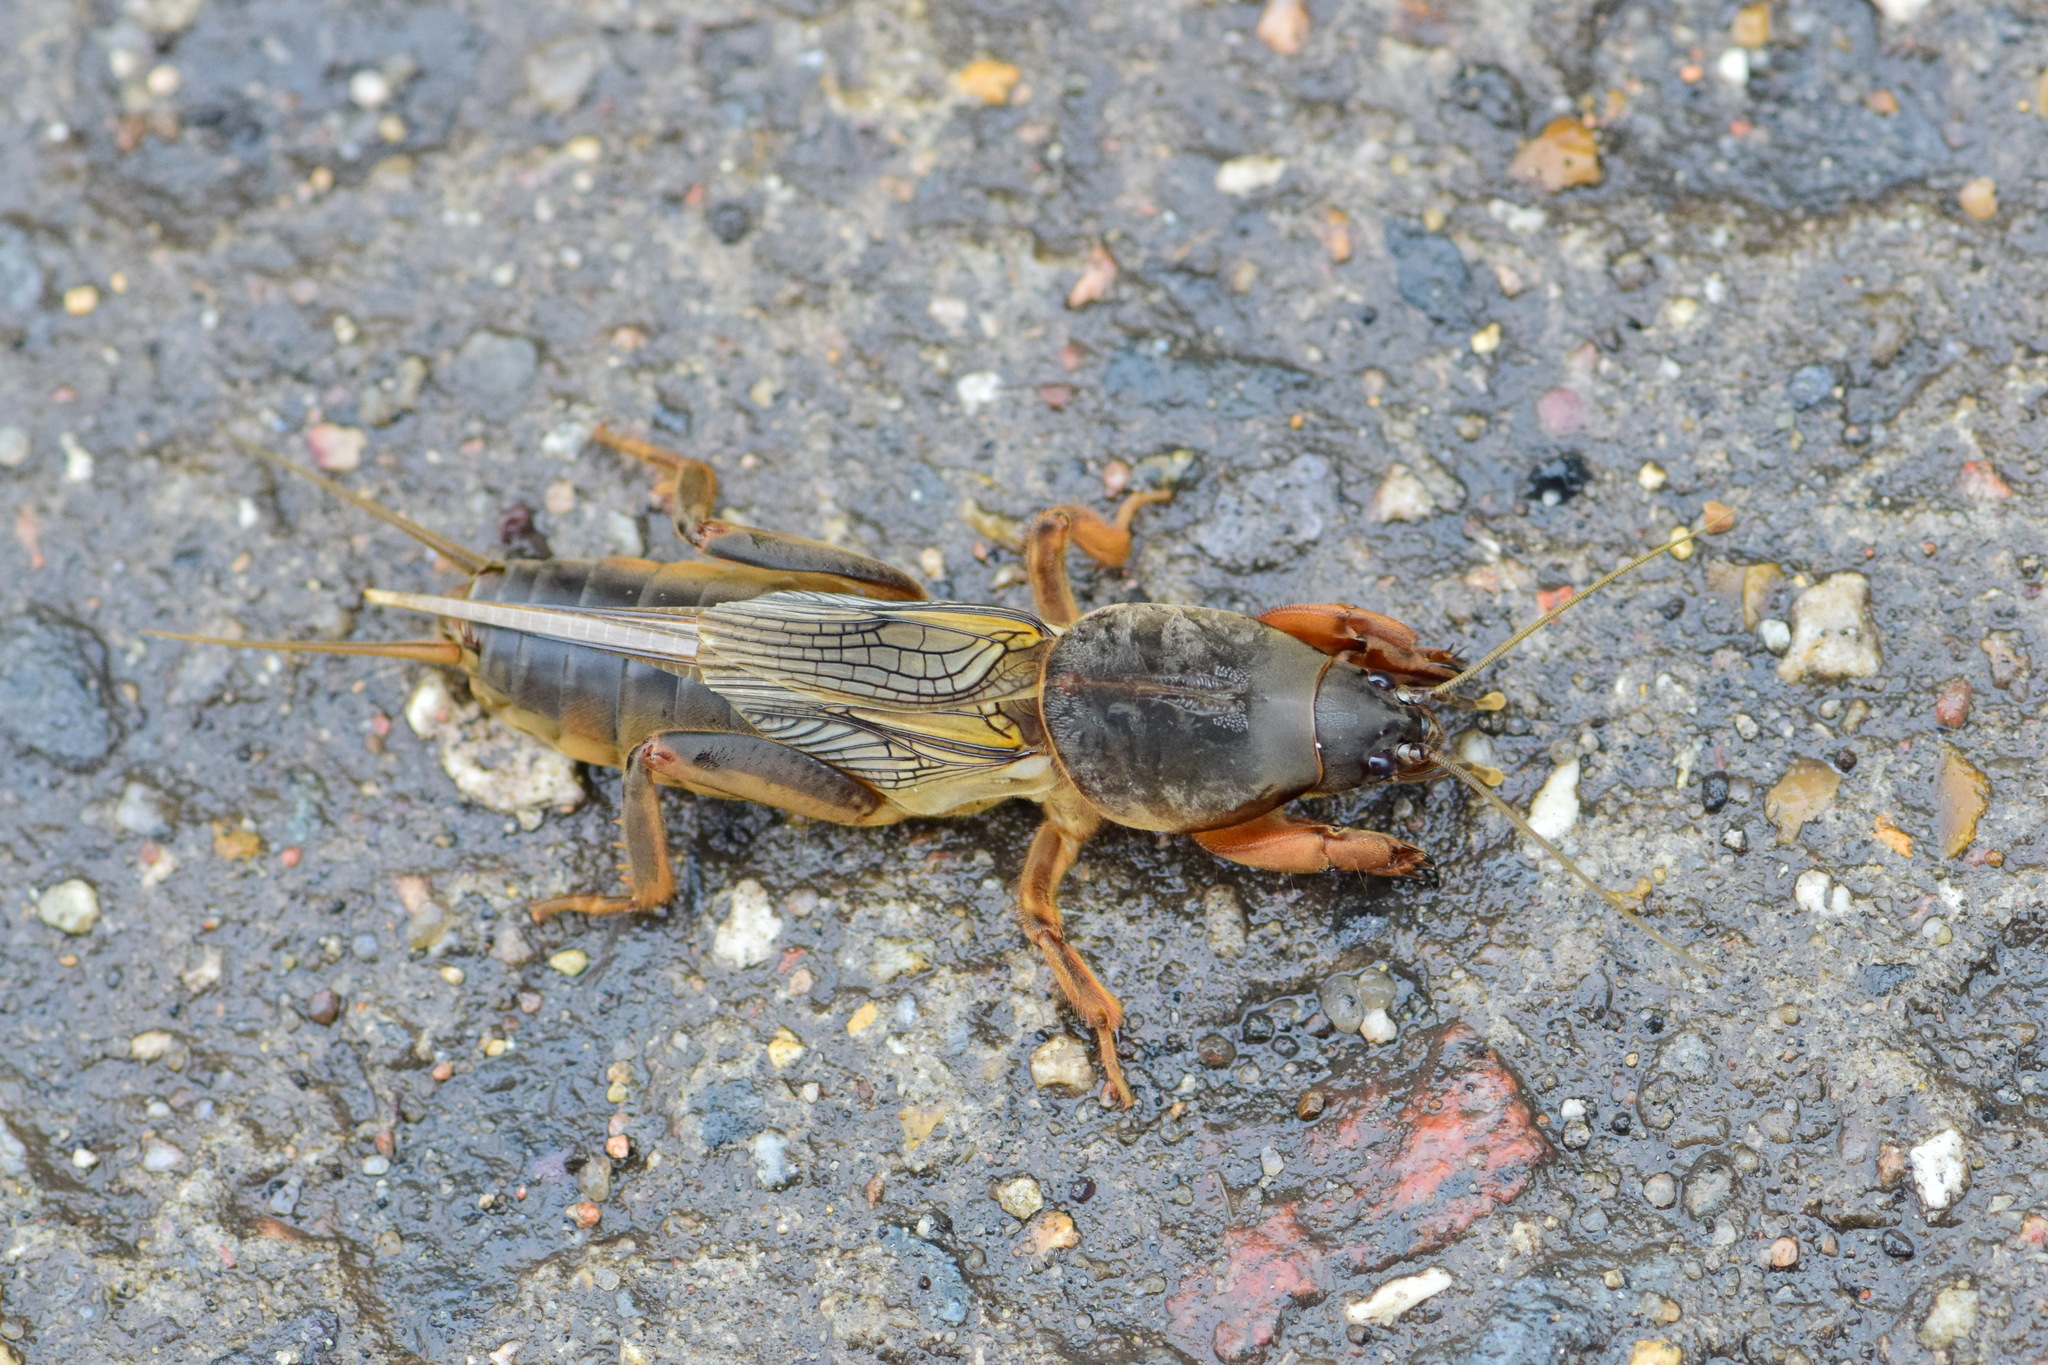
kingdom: Animalia
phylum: Arthropoda
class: Insecta
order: Orthoptera
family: Gryllotalpidae
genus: Gryllotalpa
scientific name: Gryllotalpa gryllotalpa
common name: European mole cricket
